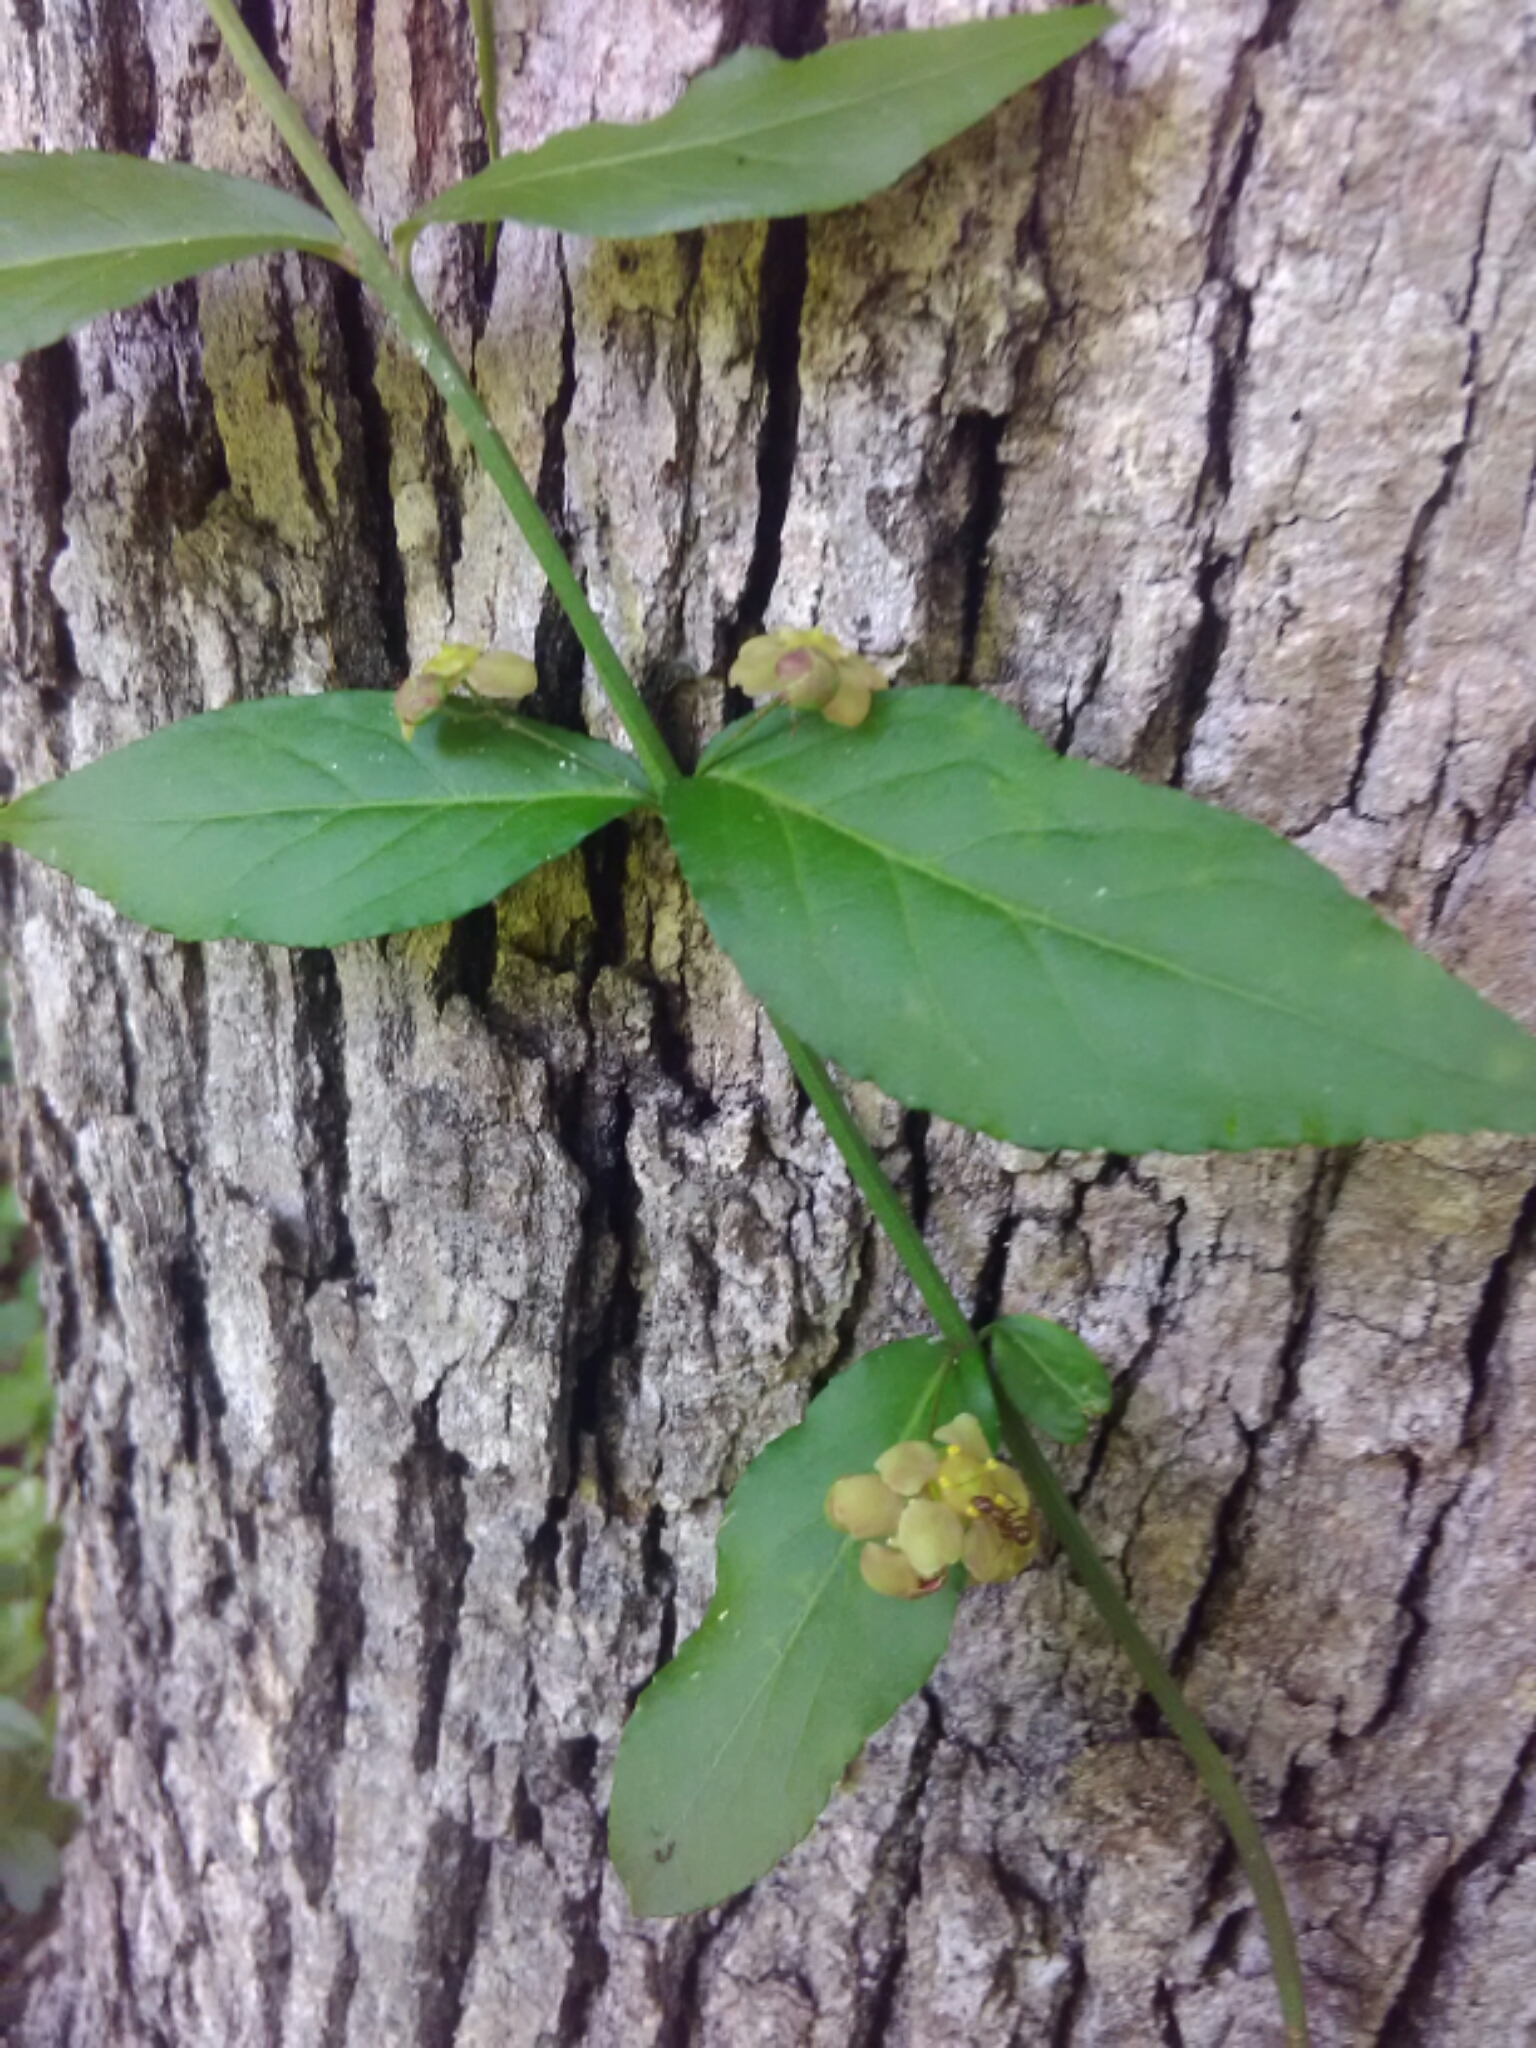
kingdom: Plantae
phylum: Tracheophyta
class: Magnoliopsida
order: Celastrales
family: Celastraceae
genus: Euonymus
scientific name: Euonymus americanus
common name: Bursting-heart
